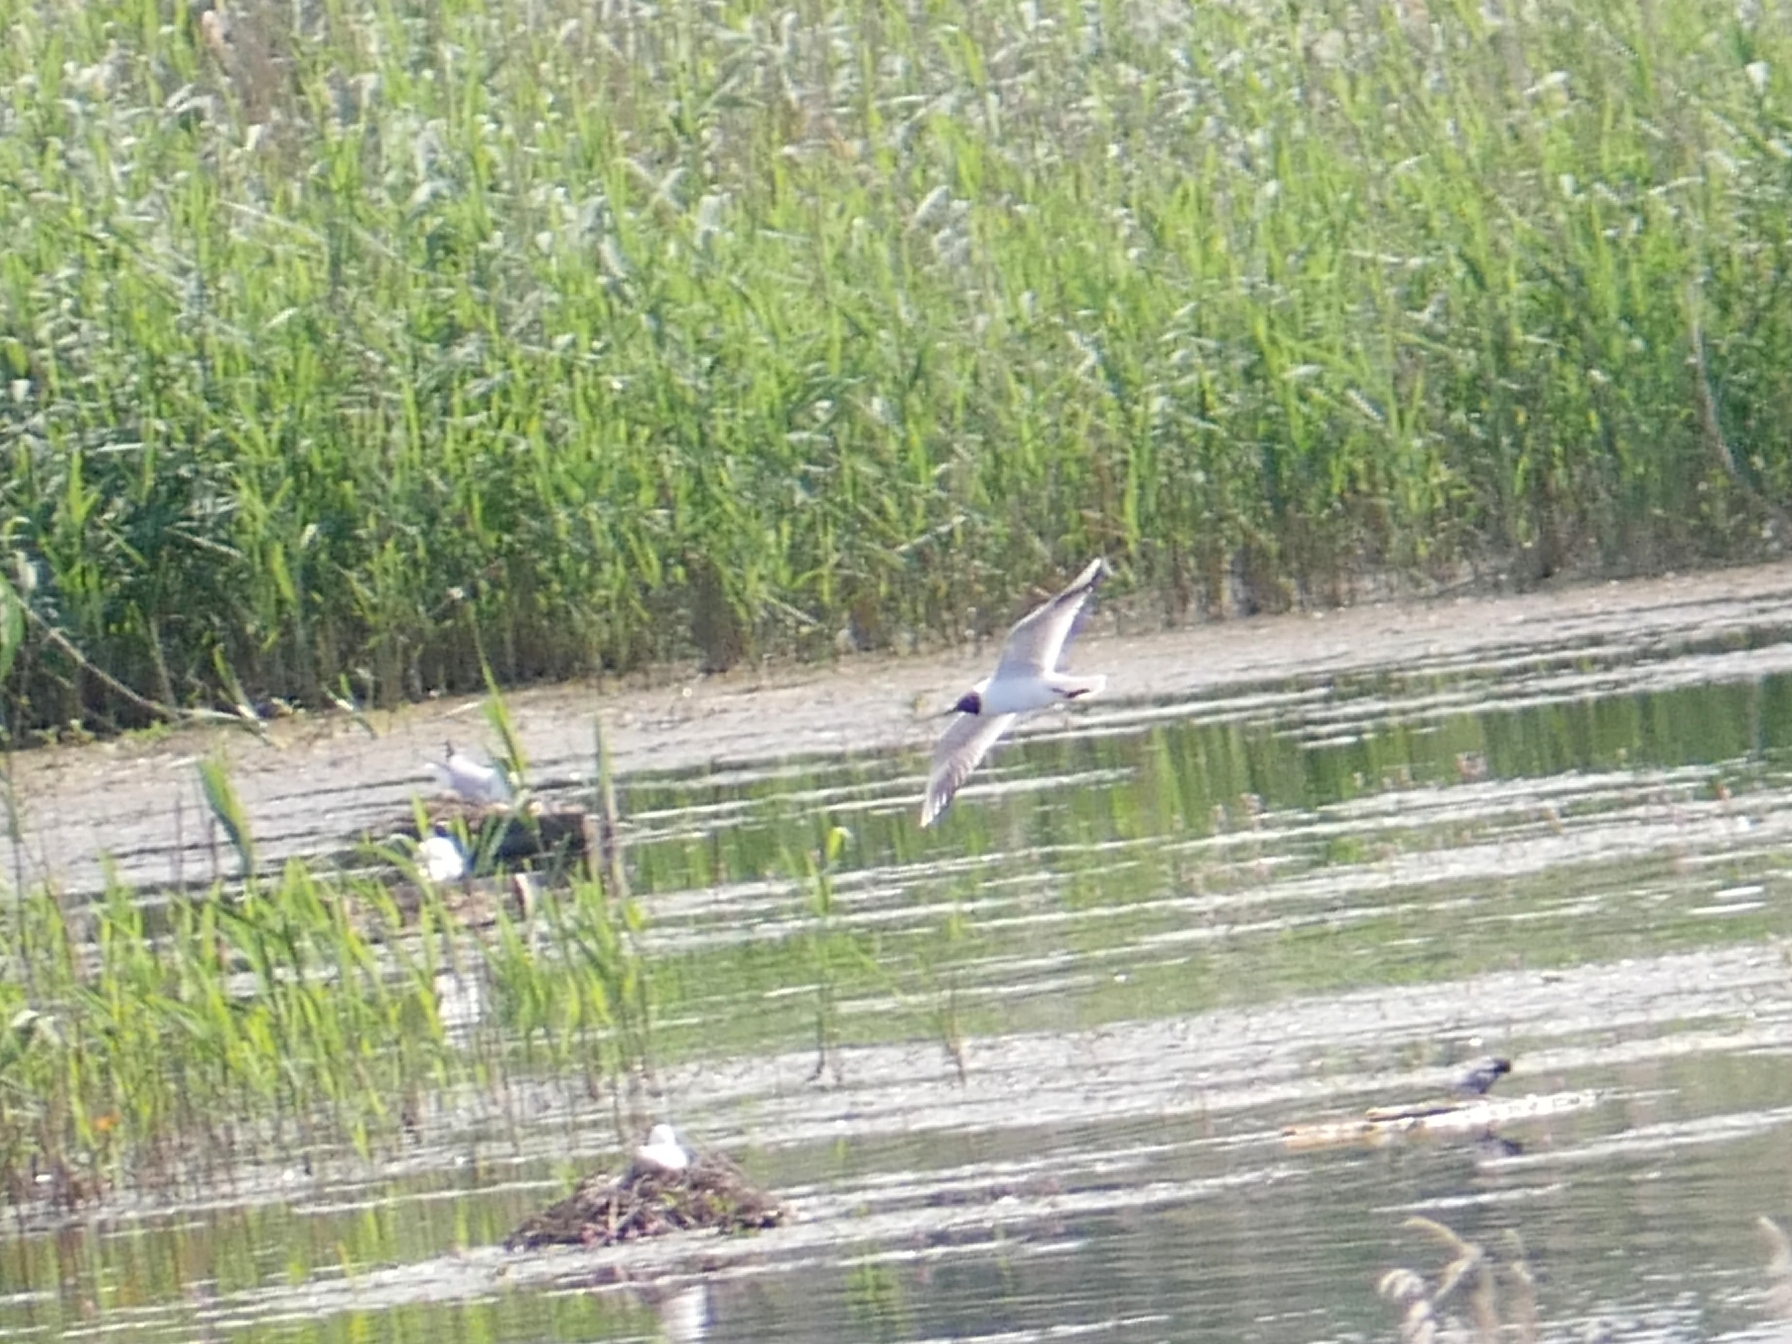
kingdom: Animalia
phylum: Chordata
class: Aves
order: Charadriiformes
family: Laridae
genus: Chroicocephalus
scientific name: Chroicocephalus ridibundus
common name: Black-headed gull
